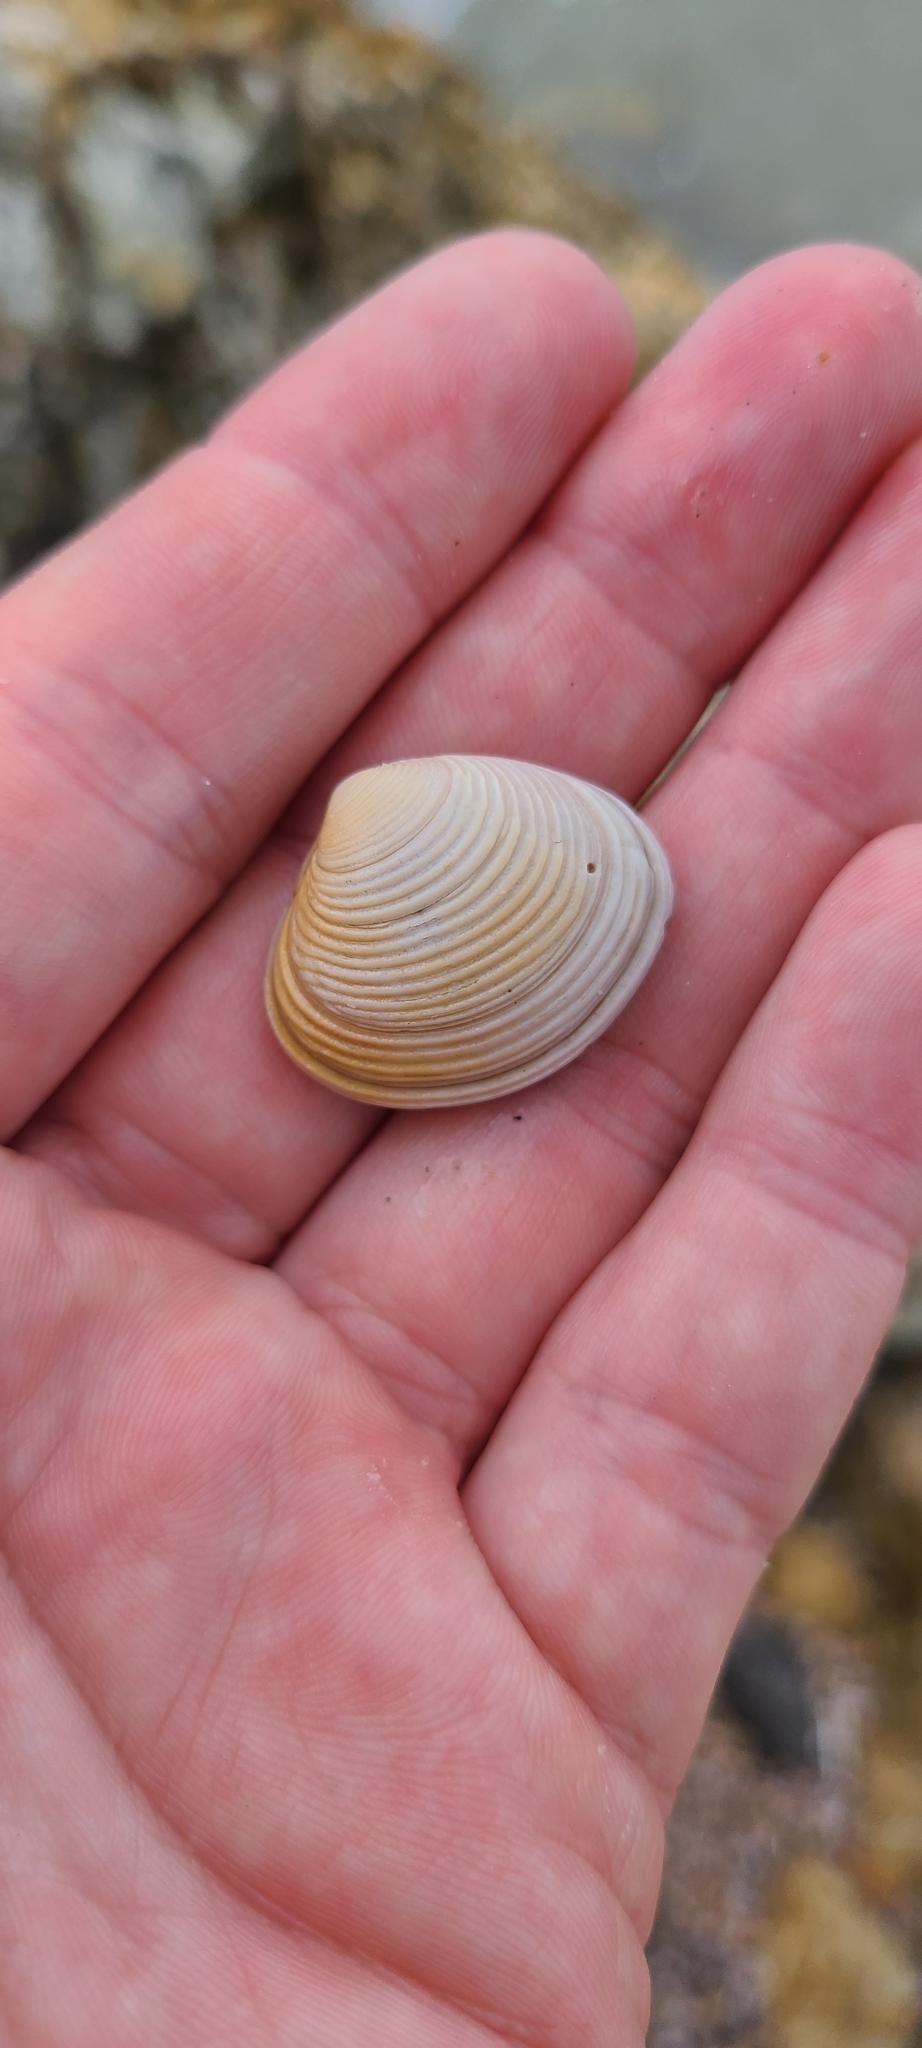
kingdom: Animalia
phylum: Mollusca
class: Bivalvia
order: Venerida
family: Veneridae
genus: Tawera
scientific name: Tawera spissa
